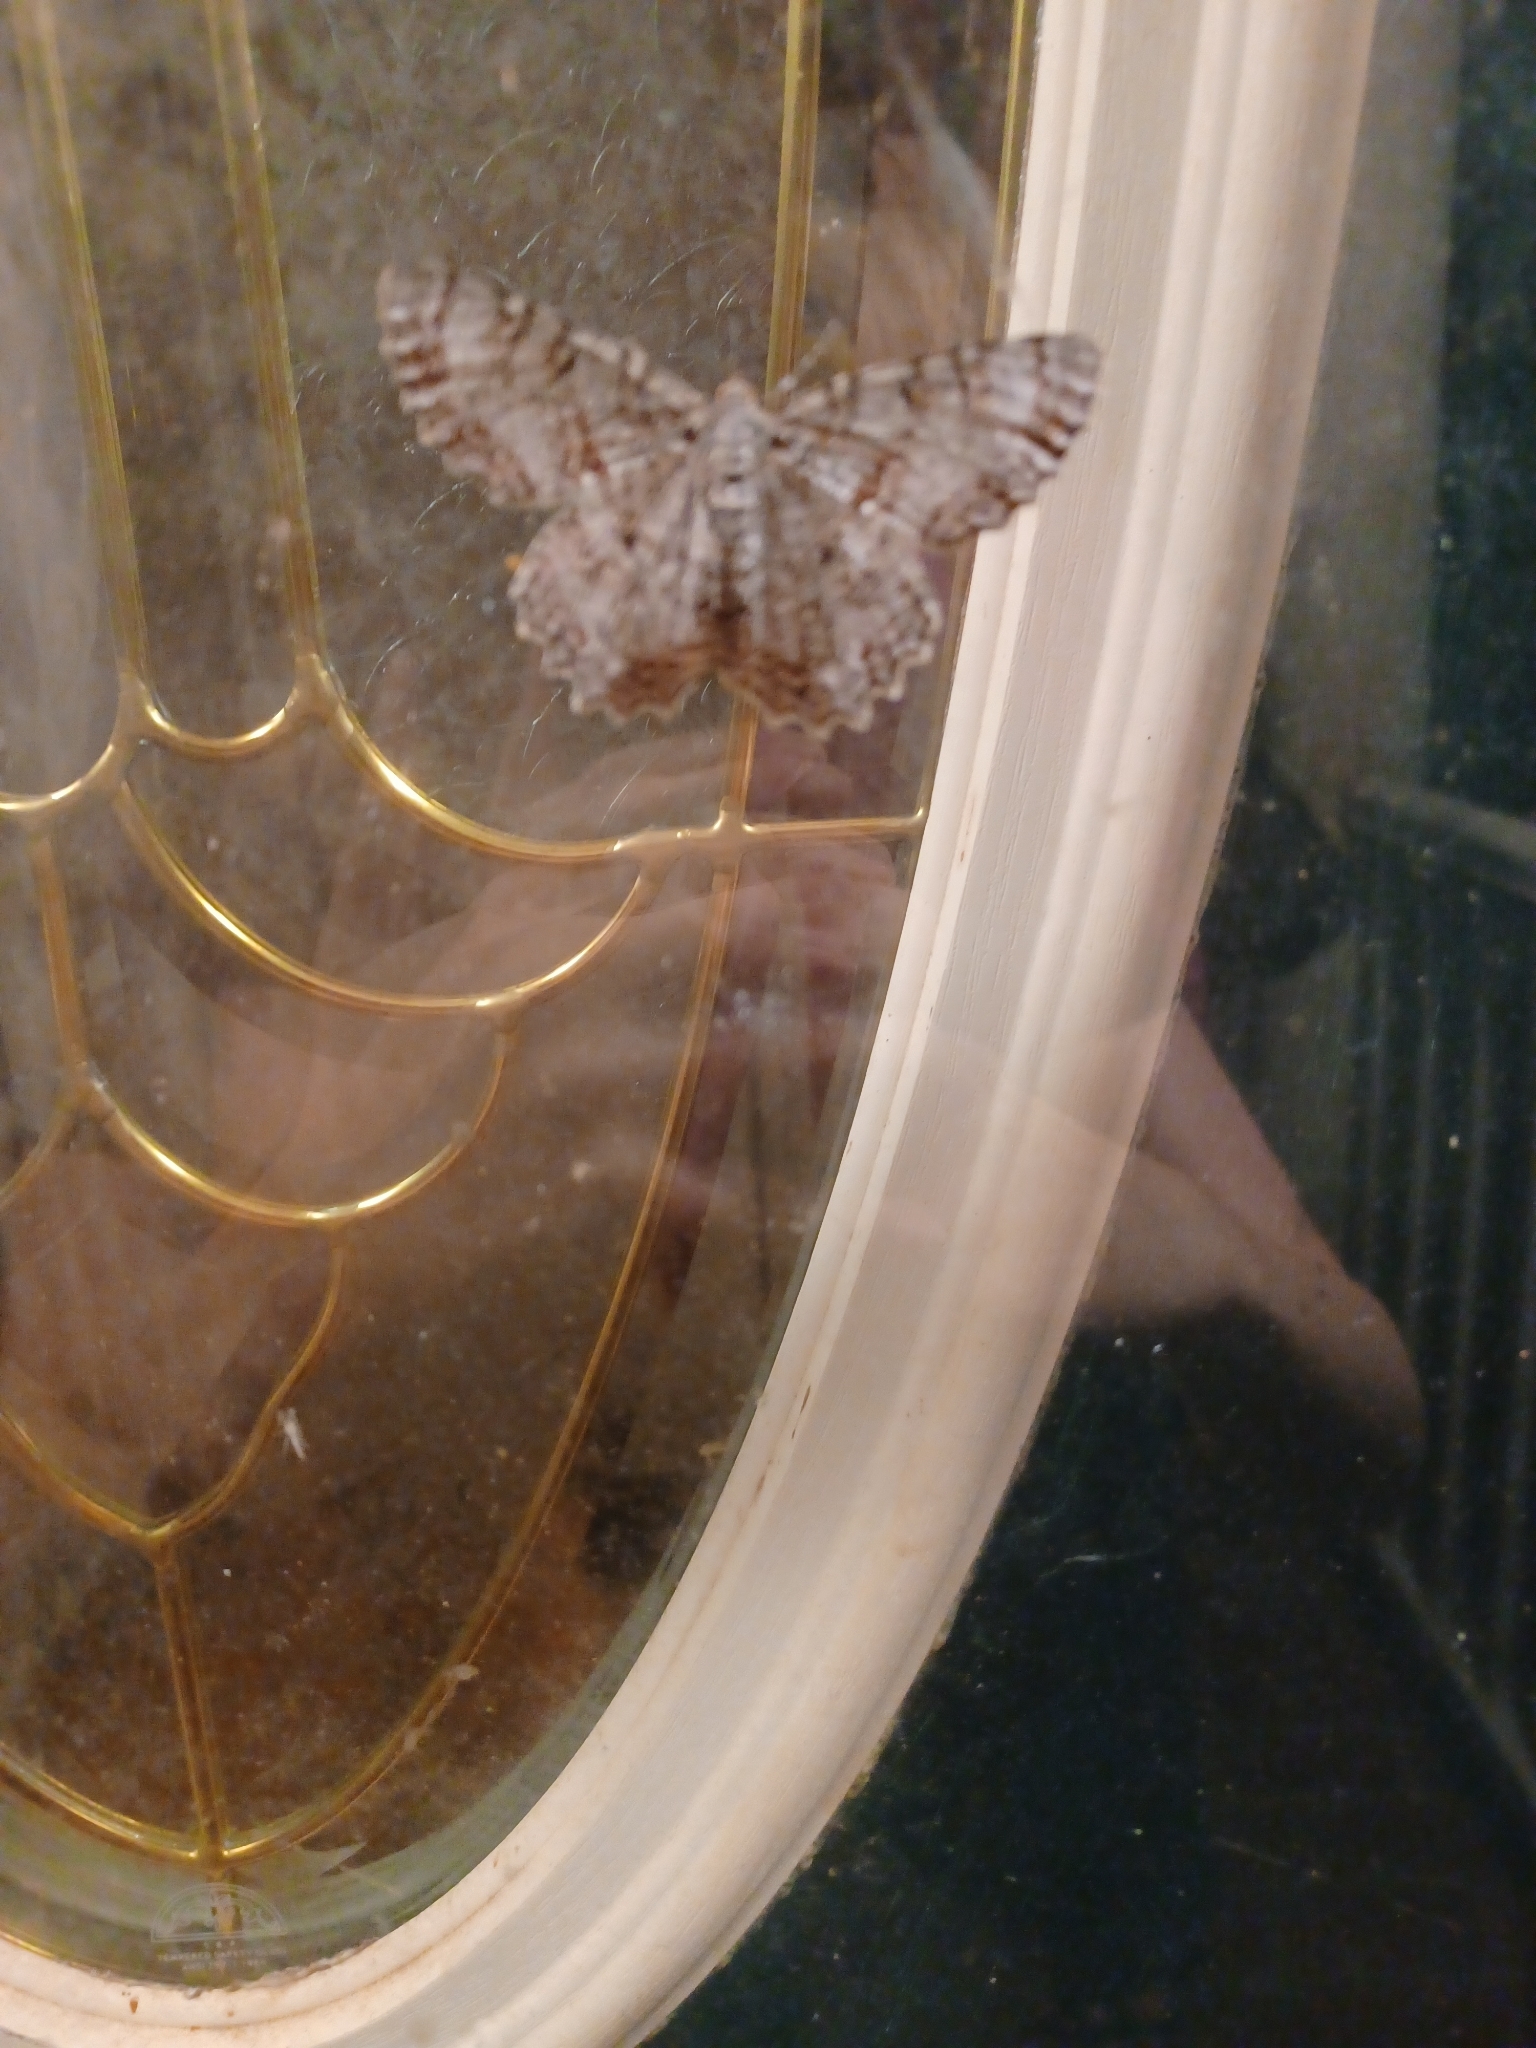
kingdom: Animalia
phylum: Arthropoda
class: Insecta
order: Lepidoptera
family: Geometridae
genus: Epimecis
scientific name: Epimecis hortaria
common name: Tulip-tree beauty
